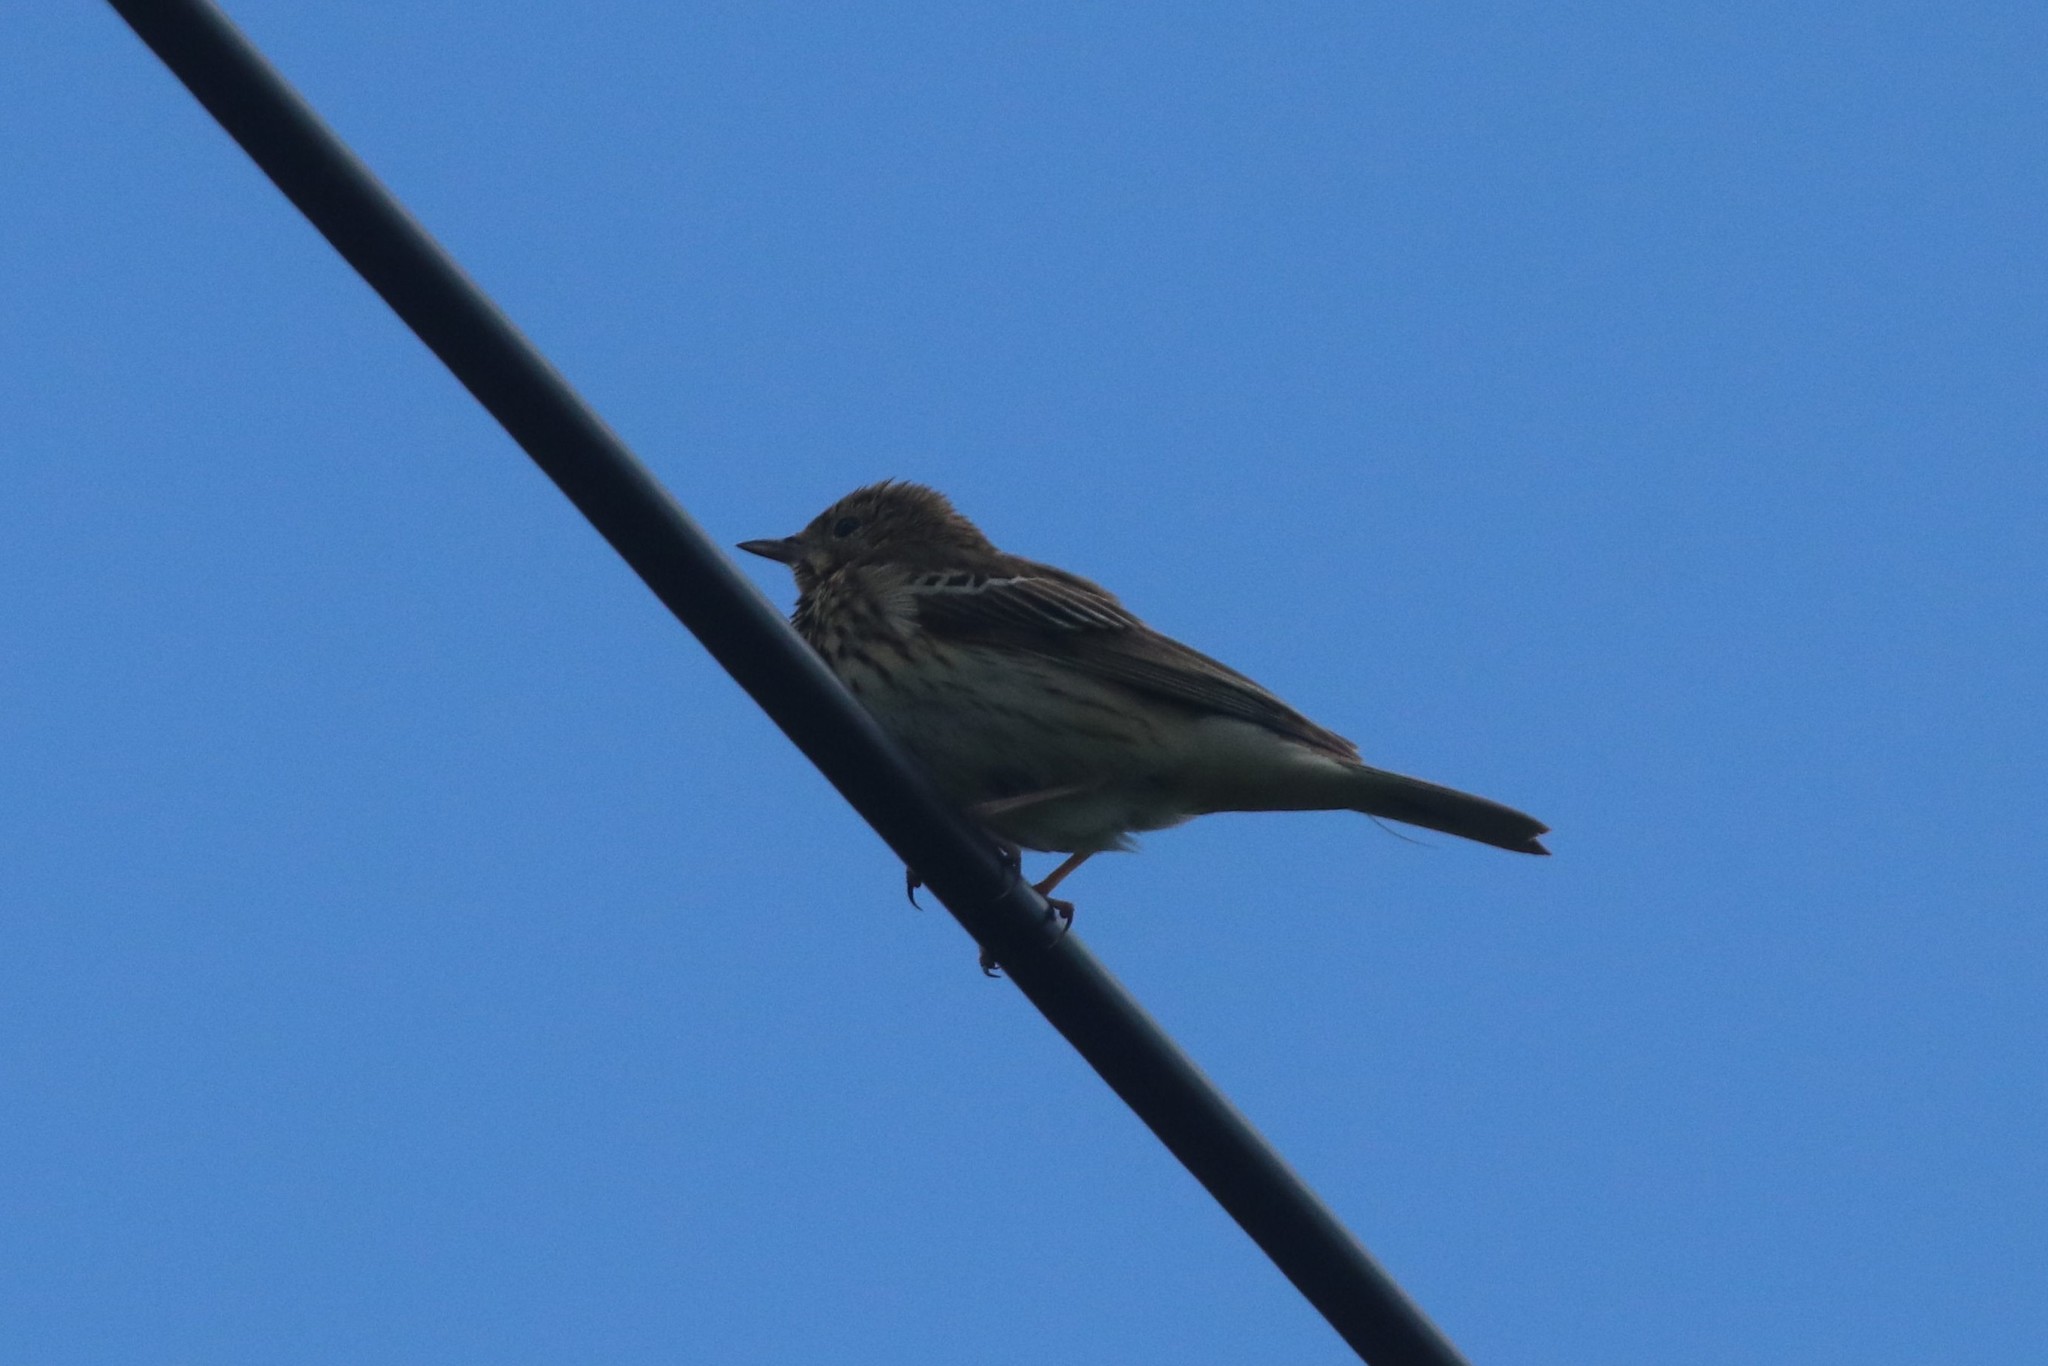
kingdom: Animalia
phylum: Chordata
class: Aves
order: Passeriformes
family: Motacillidae
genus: Anthus
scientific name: Anthus trivialis
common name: Tree pipit
